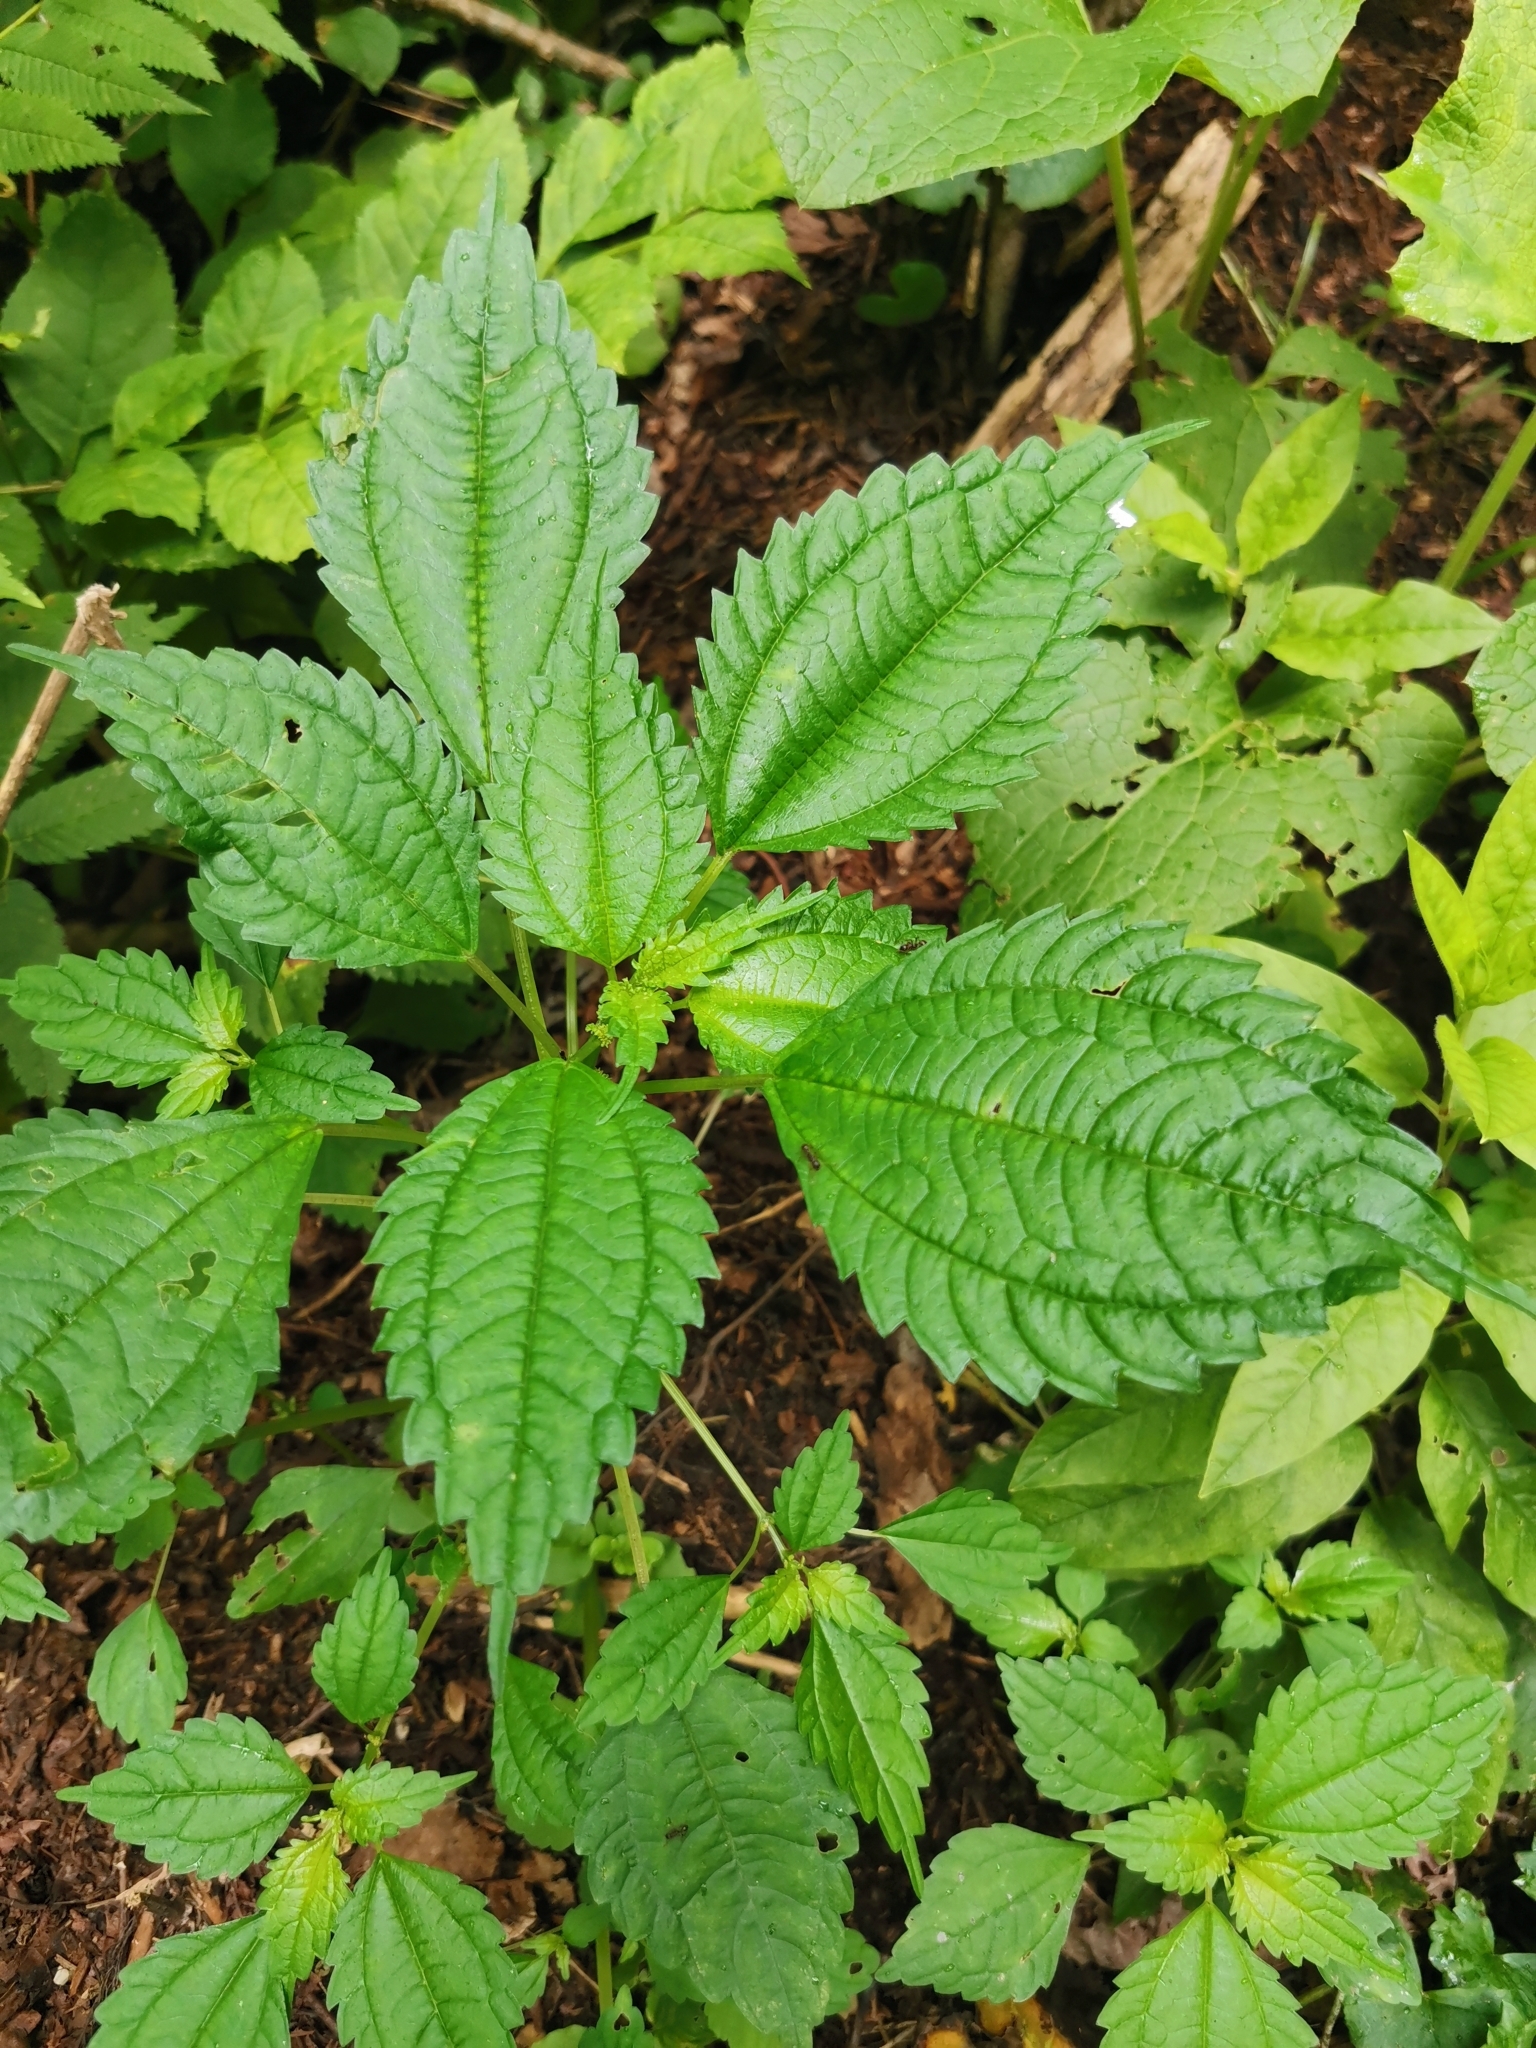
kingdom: Plantae
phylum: Tracheophyta
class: Magnoliopsida
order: Rosales
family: Urticaceae
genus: Pilea
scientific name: Pilea pumila
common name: Clearweed
